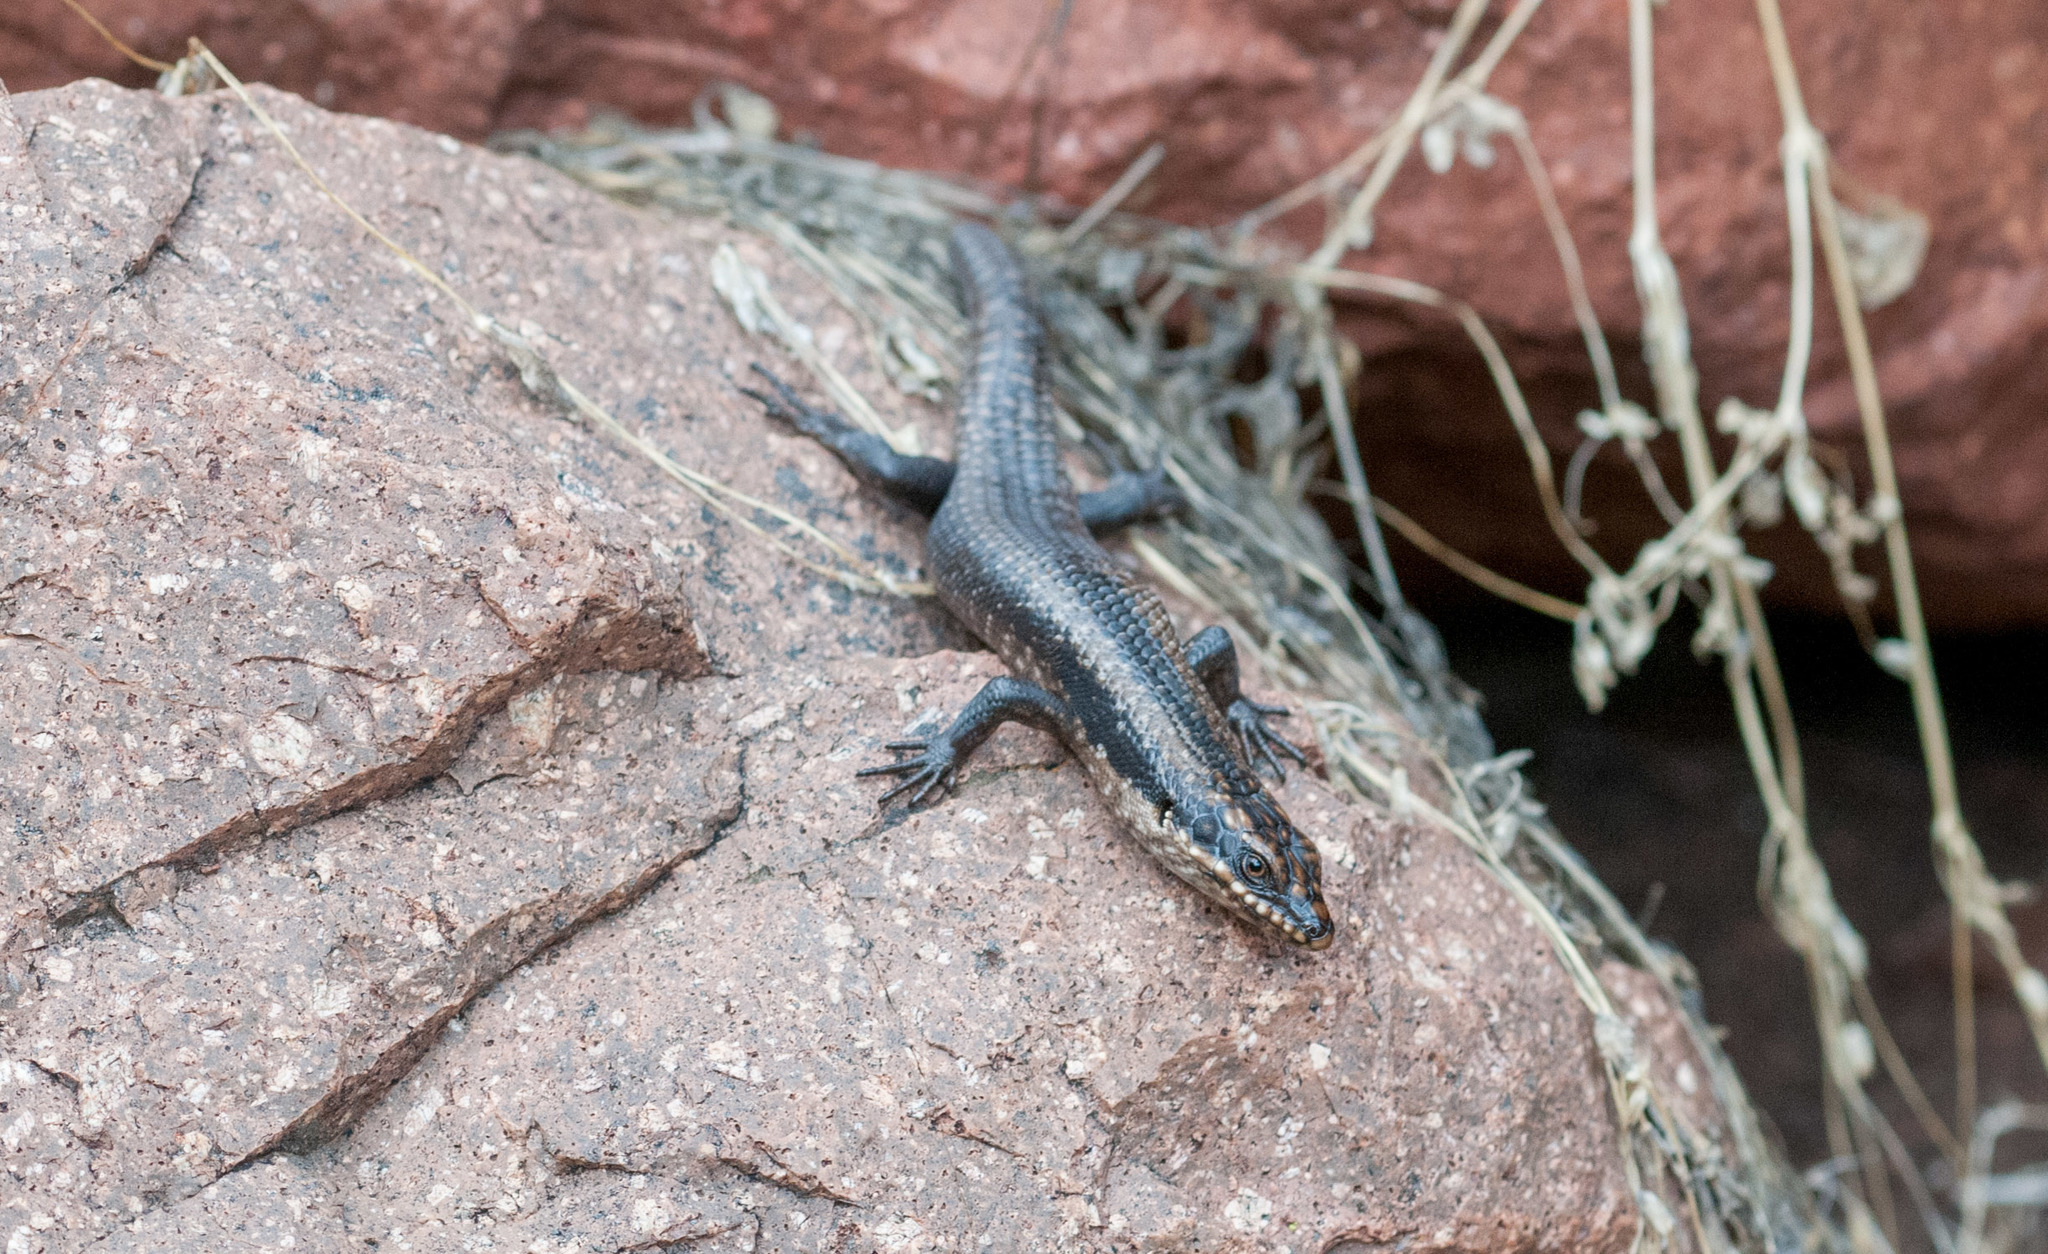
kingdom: Animalia
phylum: Chordata
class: Squamata
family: Scincidae
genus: Egernia
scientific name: Egernia striolata
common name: Tree skink
